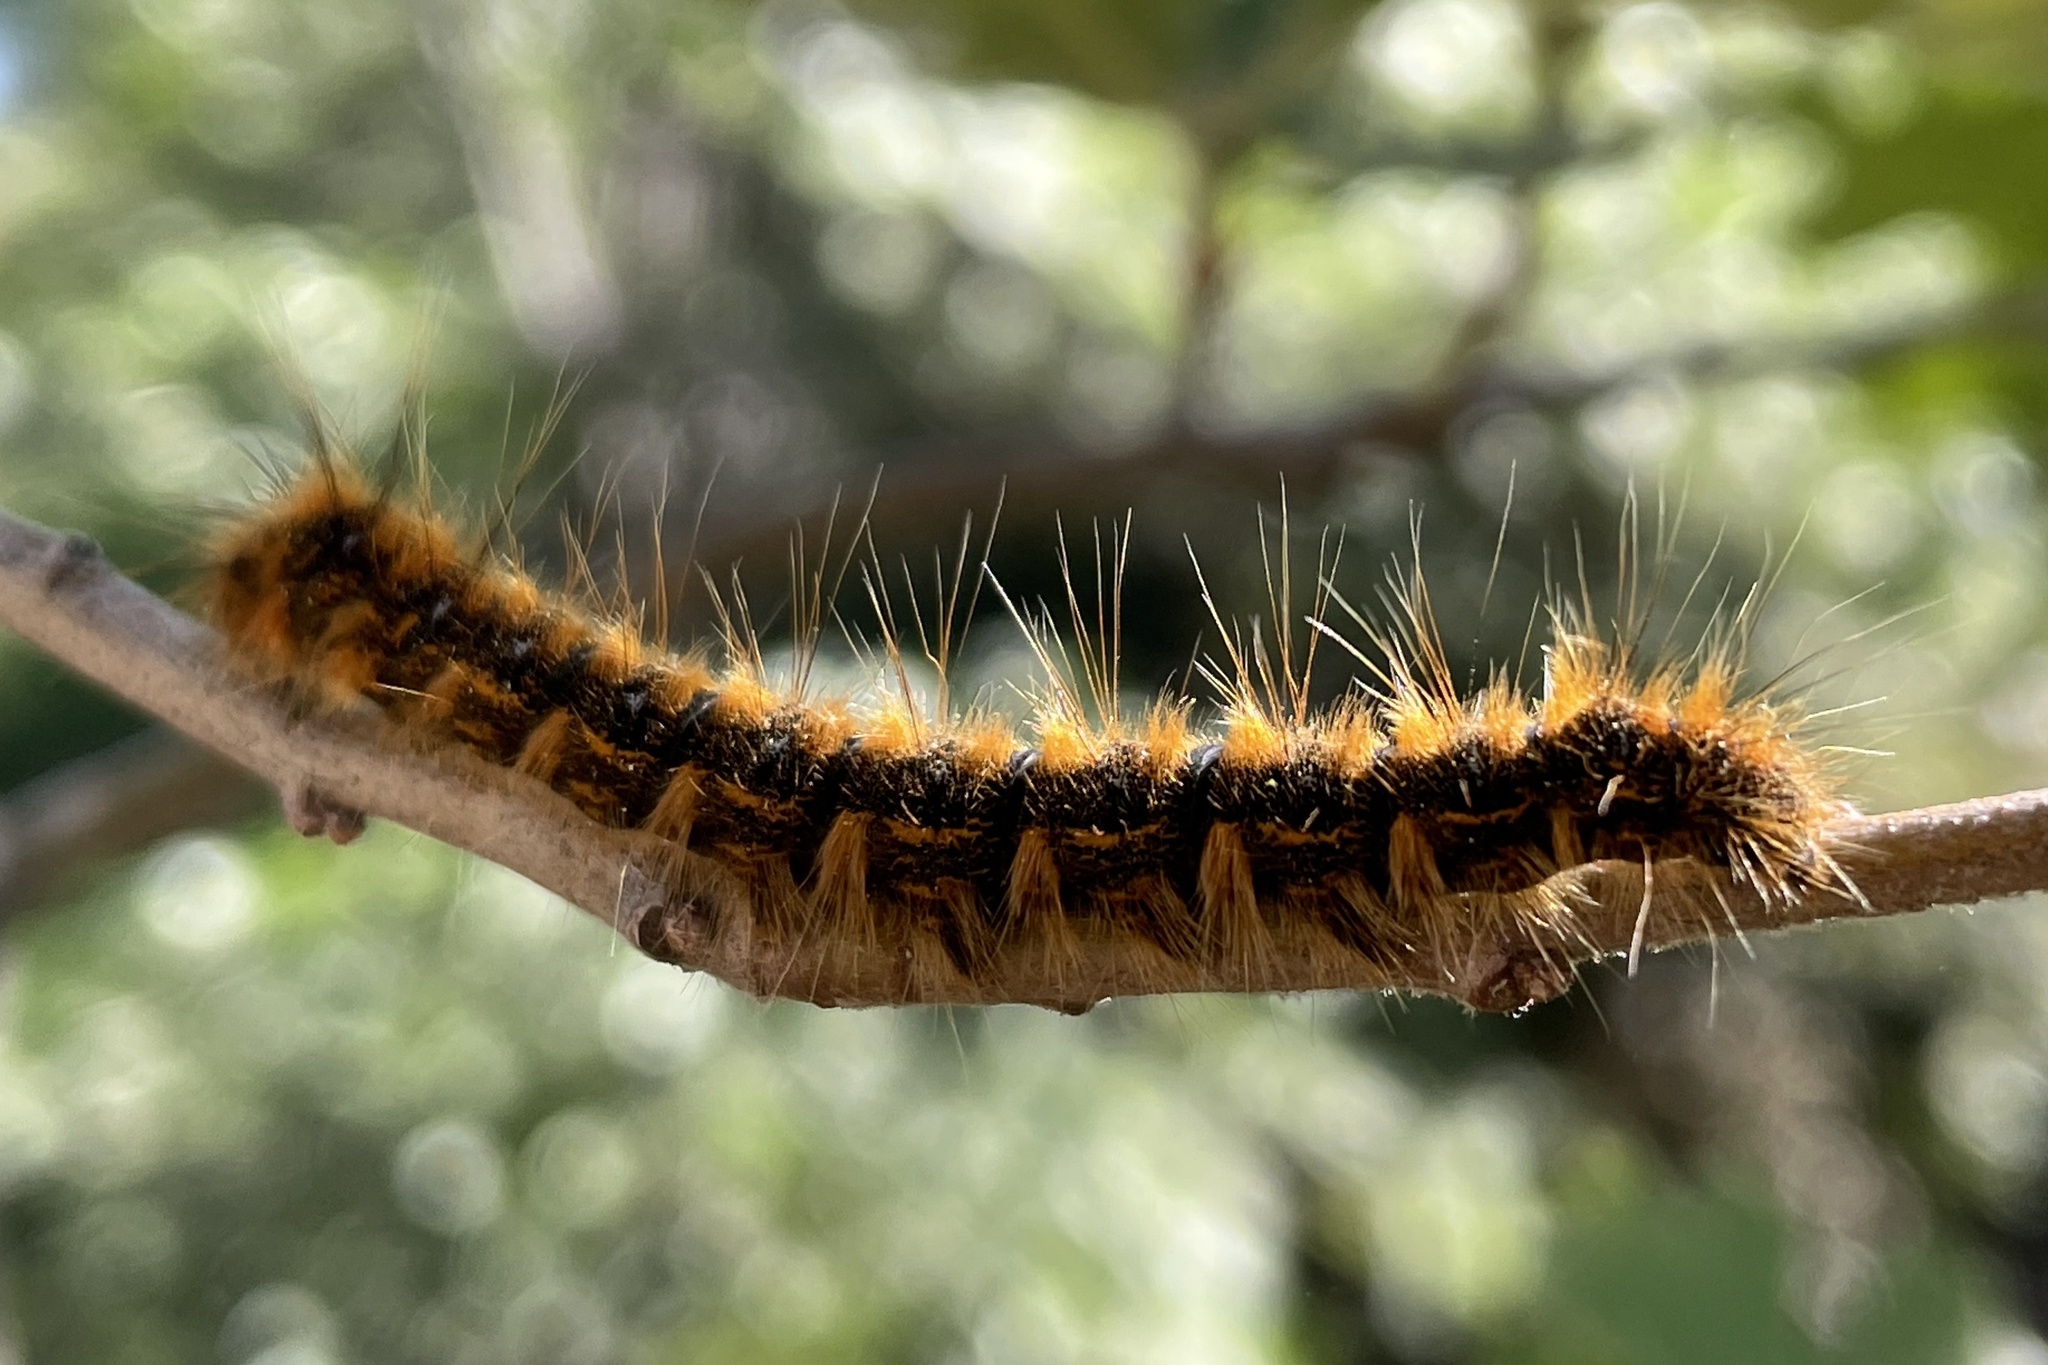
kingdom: Animalia
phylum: Arthropoda
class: Insecta
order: Lepidoptera
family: Lasiocampidae
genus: Malacosoma
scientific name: Malacosoma constricta
